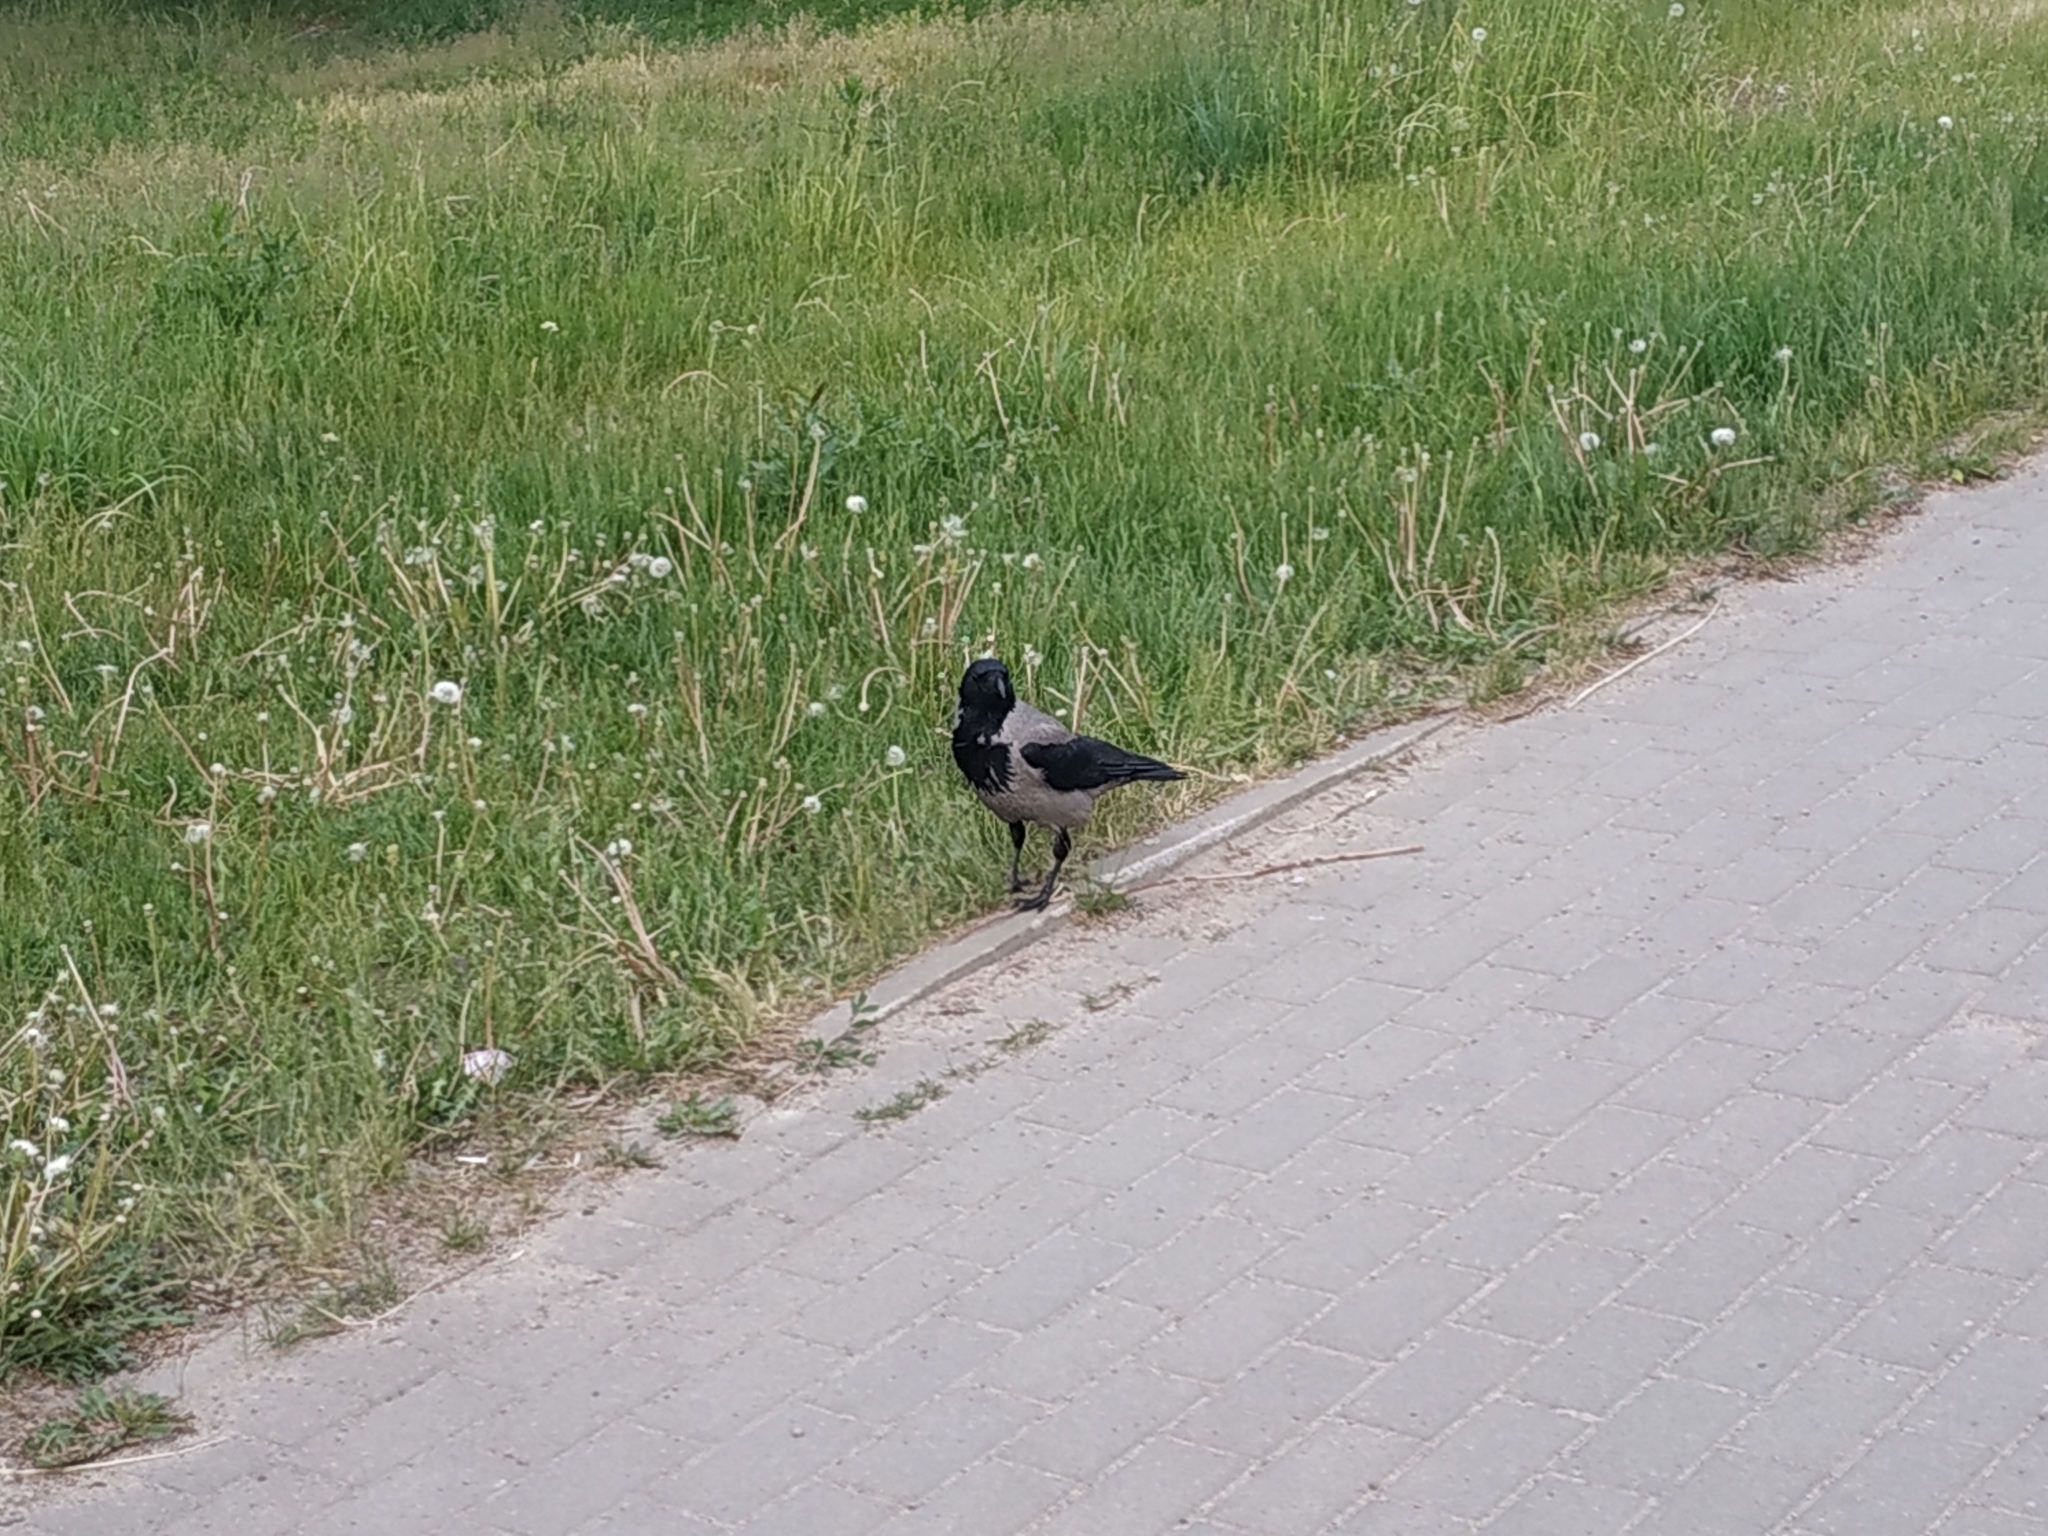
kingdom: Animalia
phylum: Chordata
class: Aves
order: Passeriformes
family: Corvidae
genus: Corvus
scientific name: Corvus cornix
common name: Hooded crow
